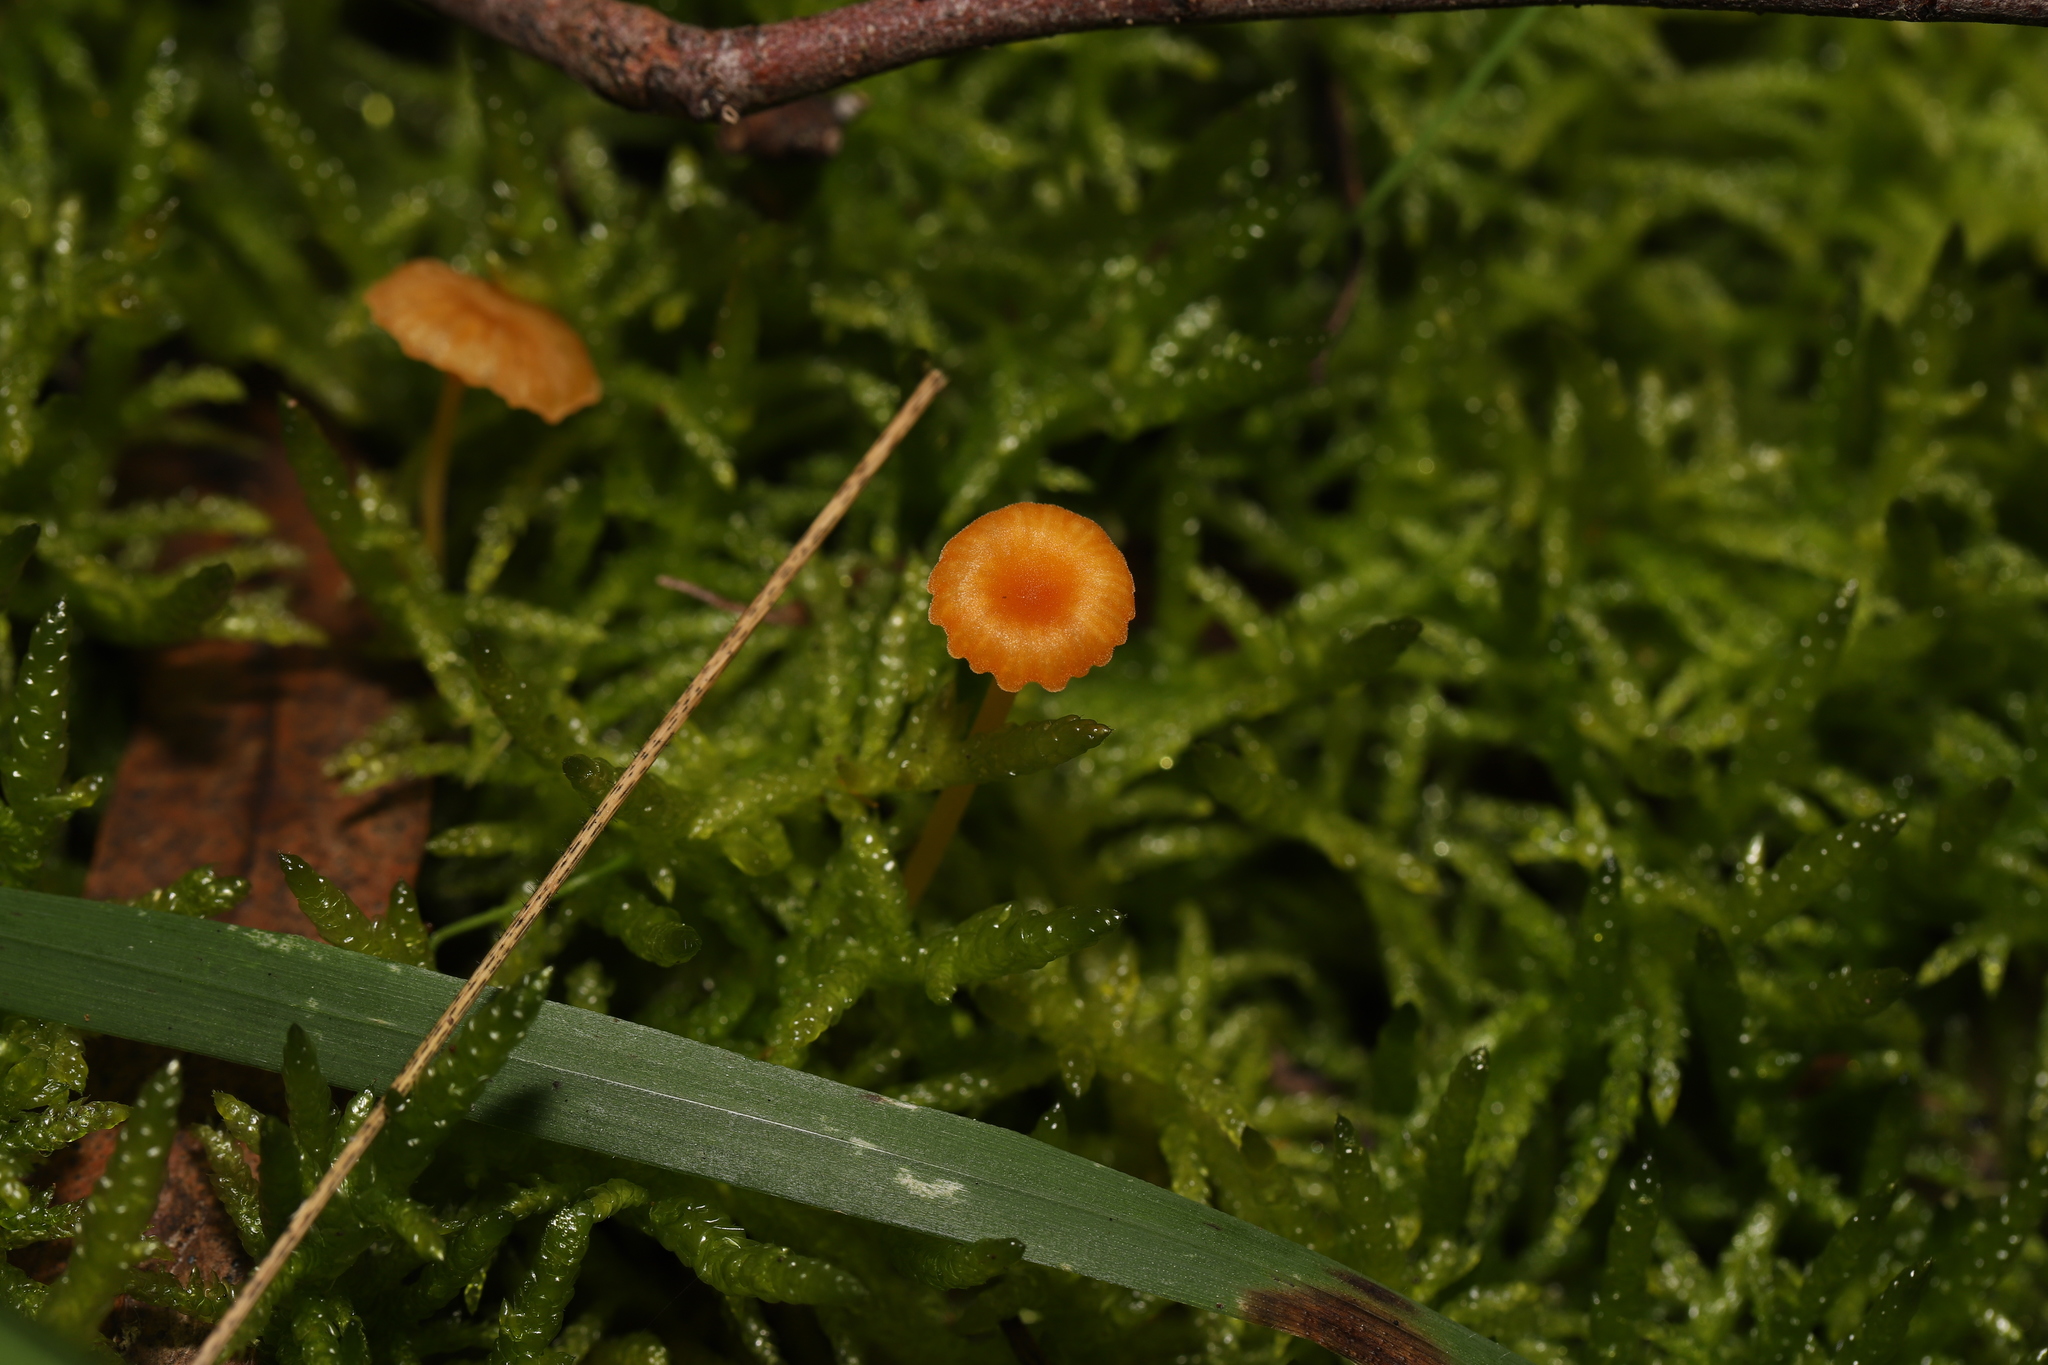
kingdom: Fungi
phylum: Basidiomycota
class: Agaricomycetes
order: Hymenochaetales
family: Rickenellaceae
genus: Rickenella
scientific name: Rickenella fibula
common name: Orange mosscap
